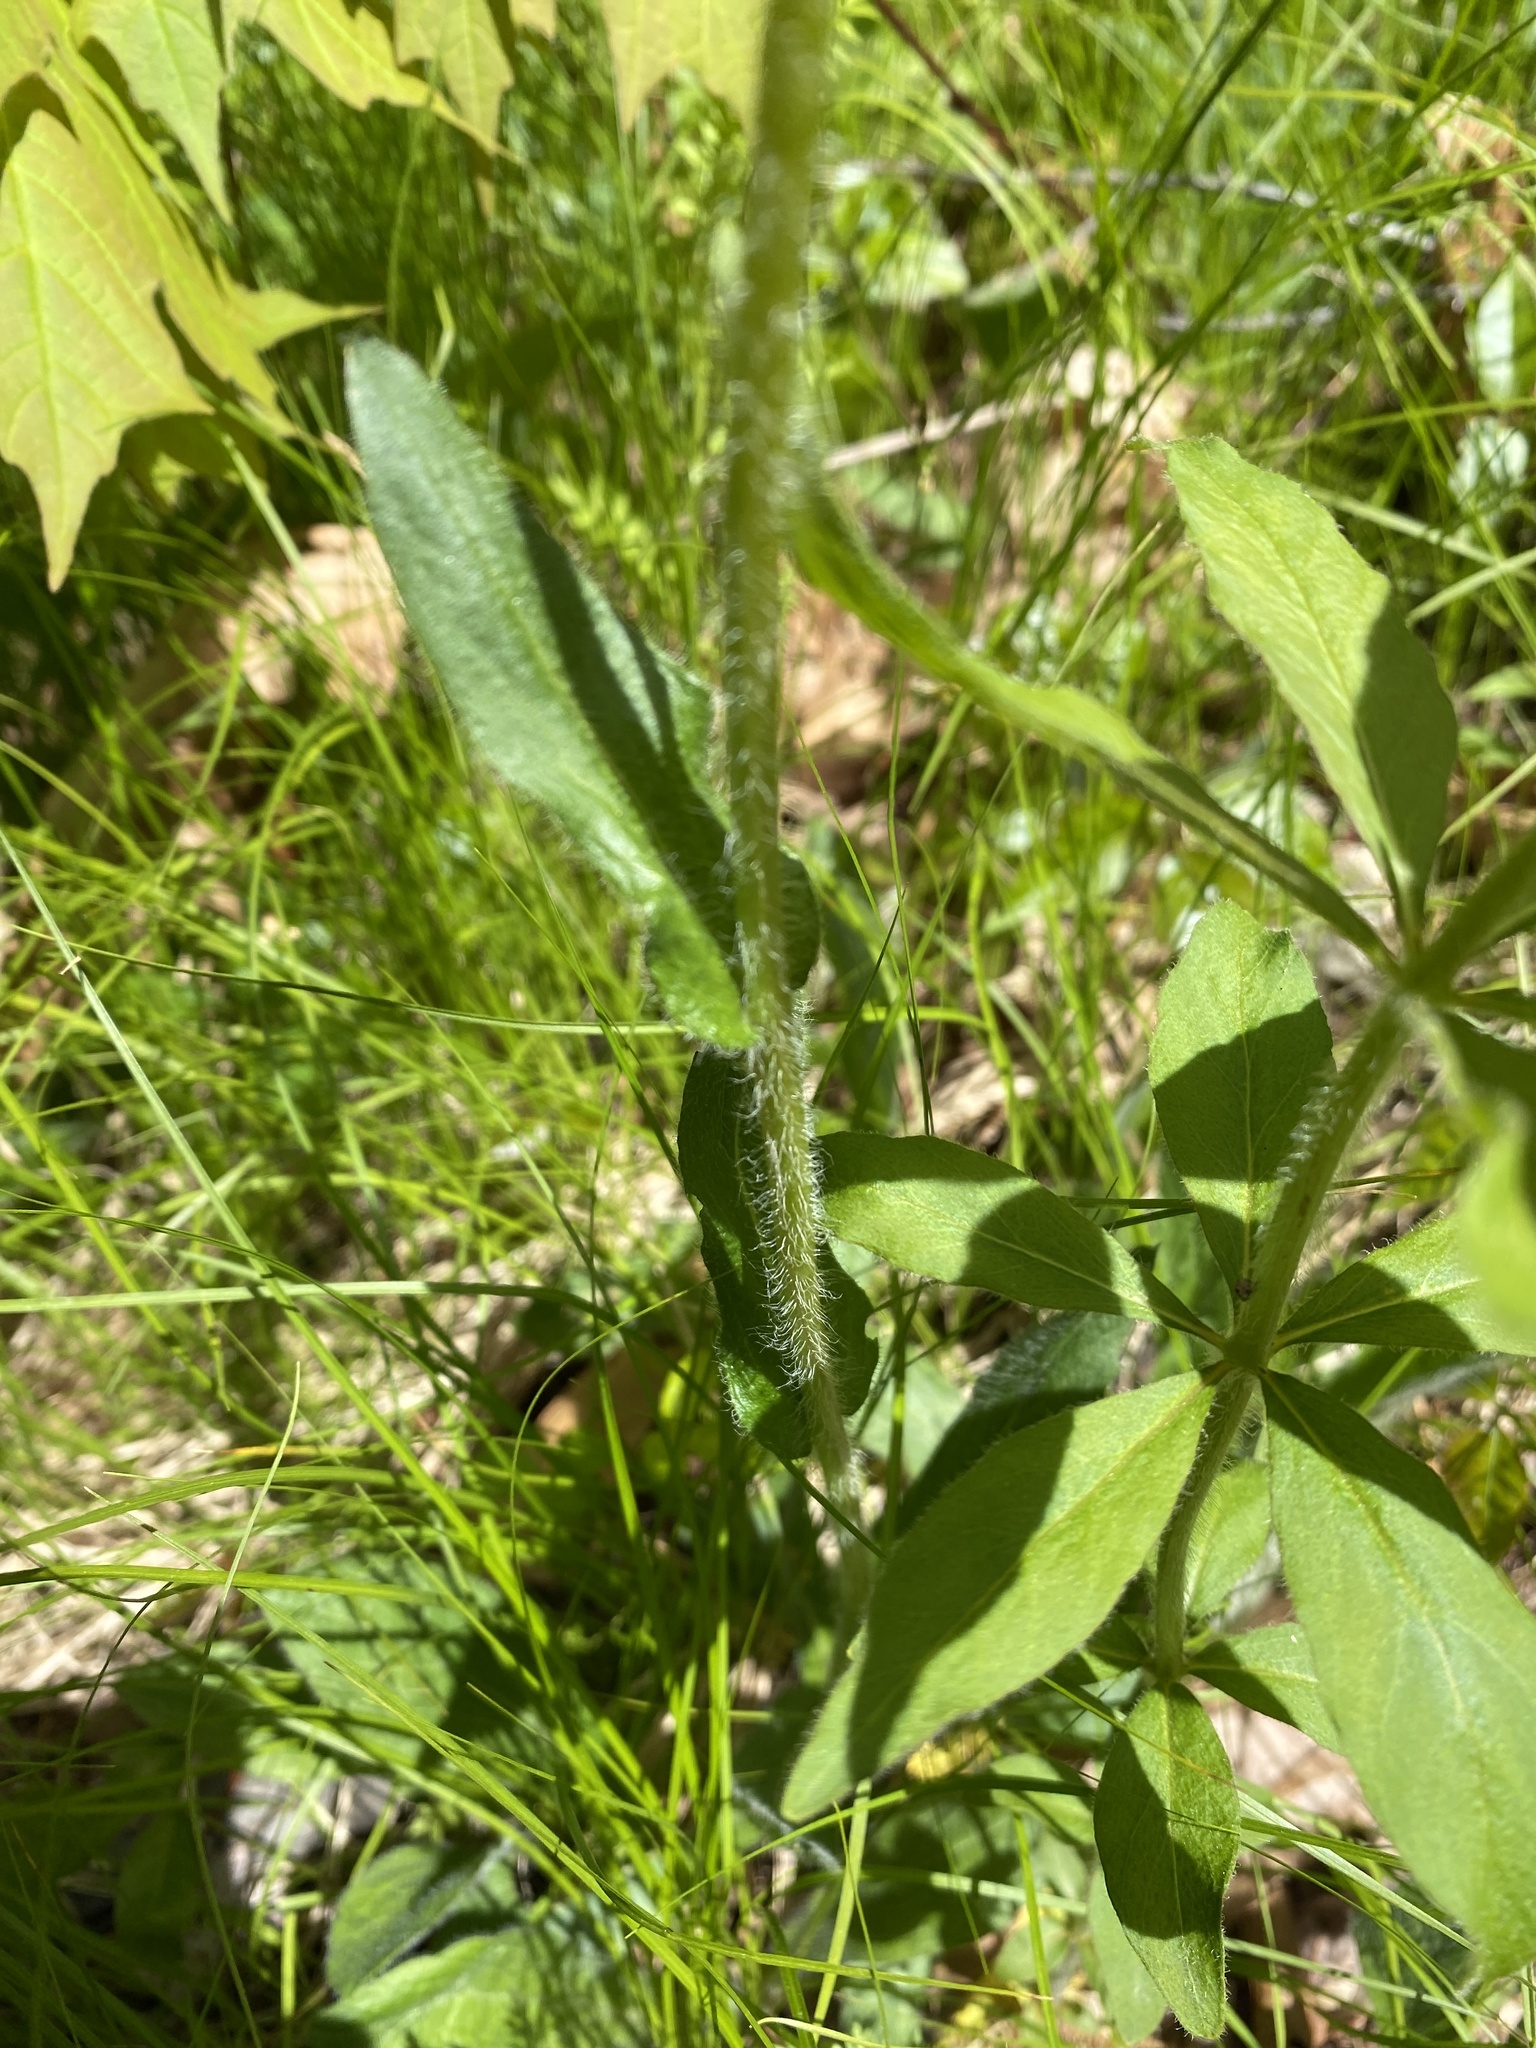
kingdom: Plantae
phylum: Tracheophyta
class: Magnoliopsida
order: Asterales
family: Asteraceae
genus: Erigeron
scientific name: Erigeron philadelphicus
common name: Robin's-plantain
